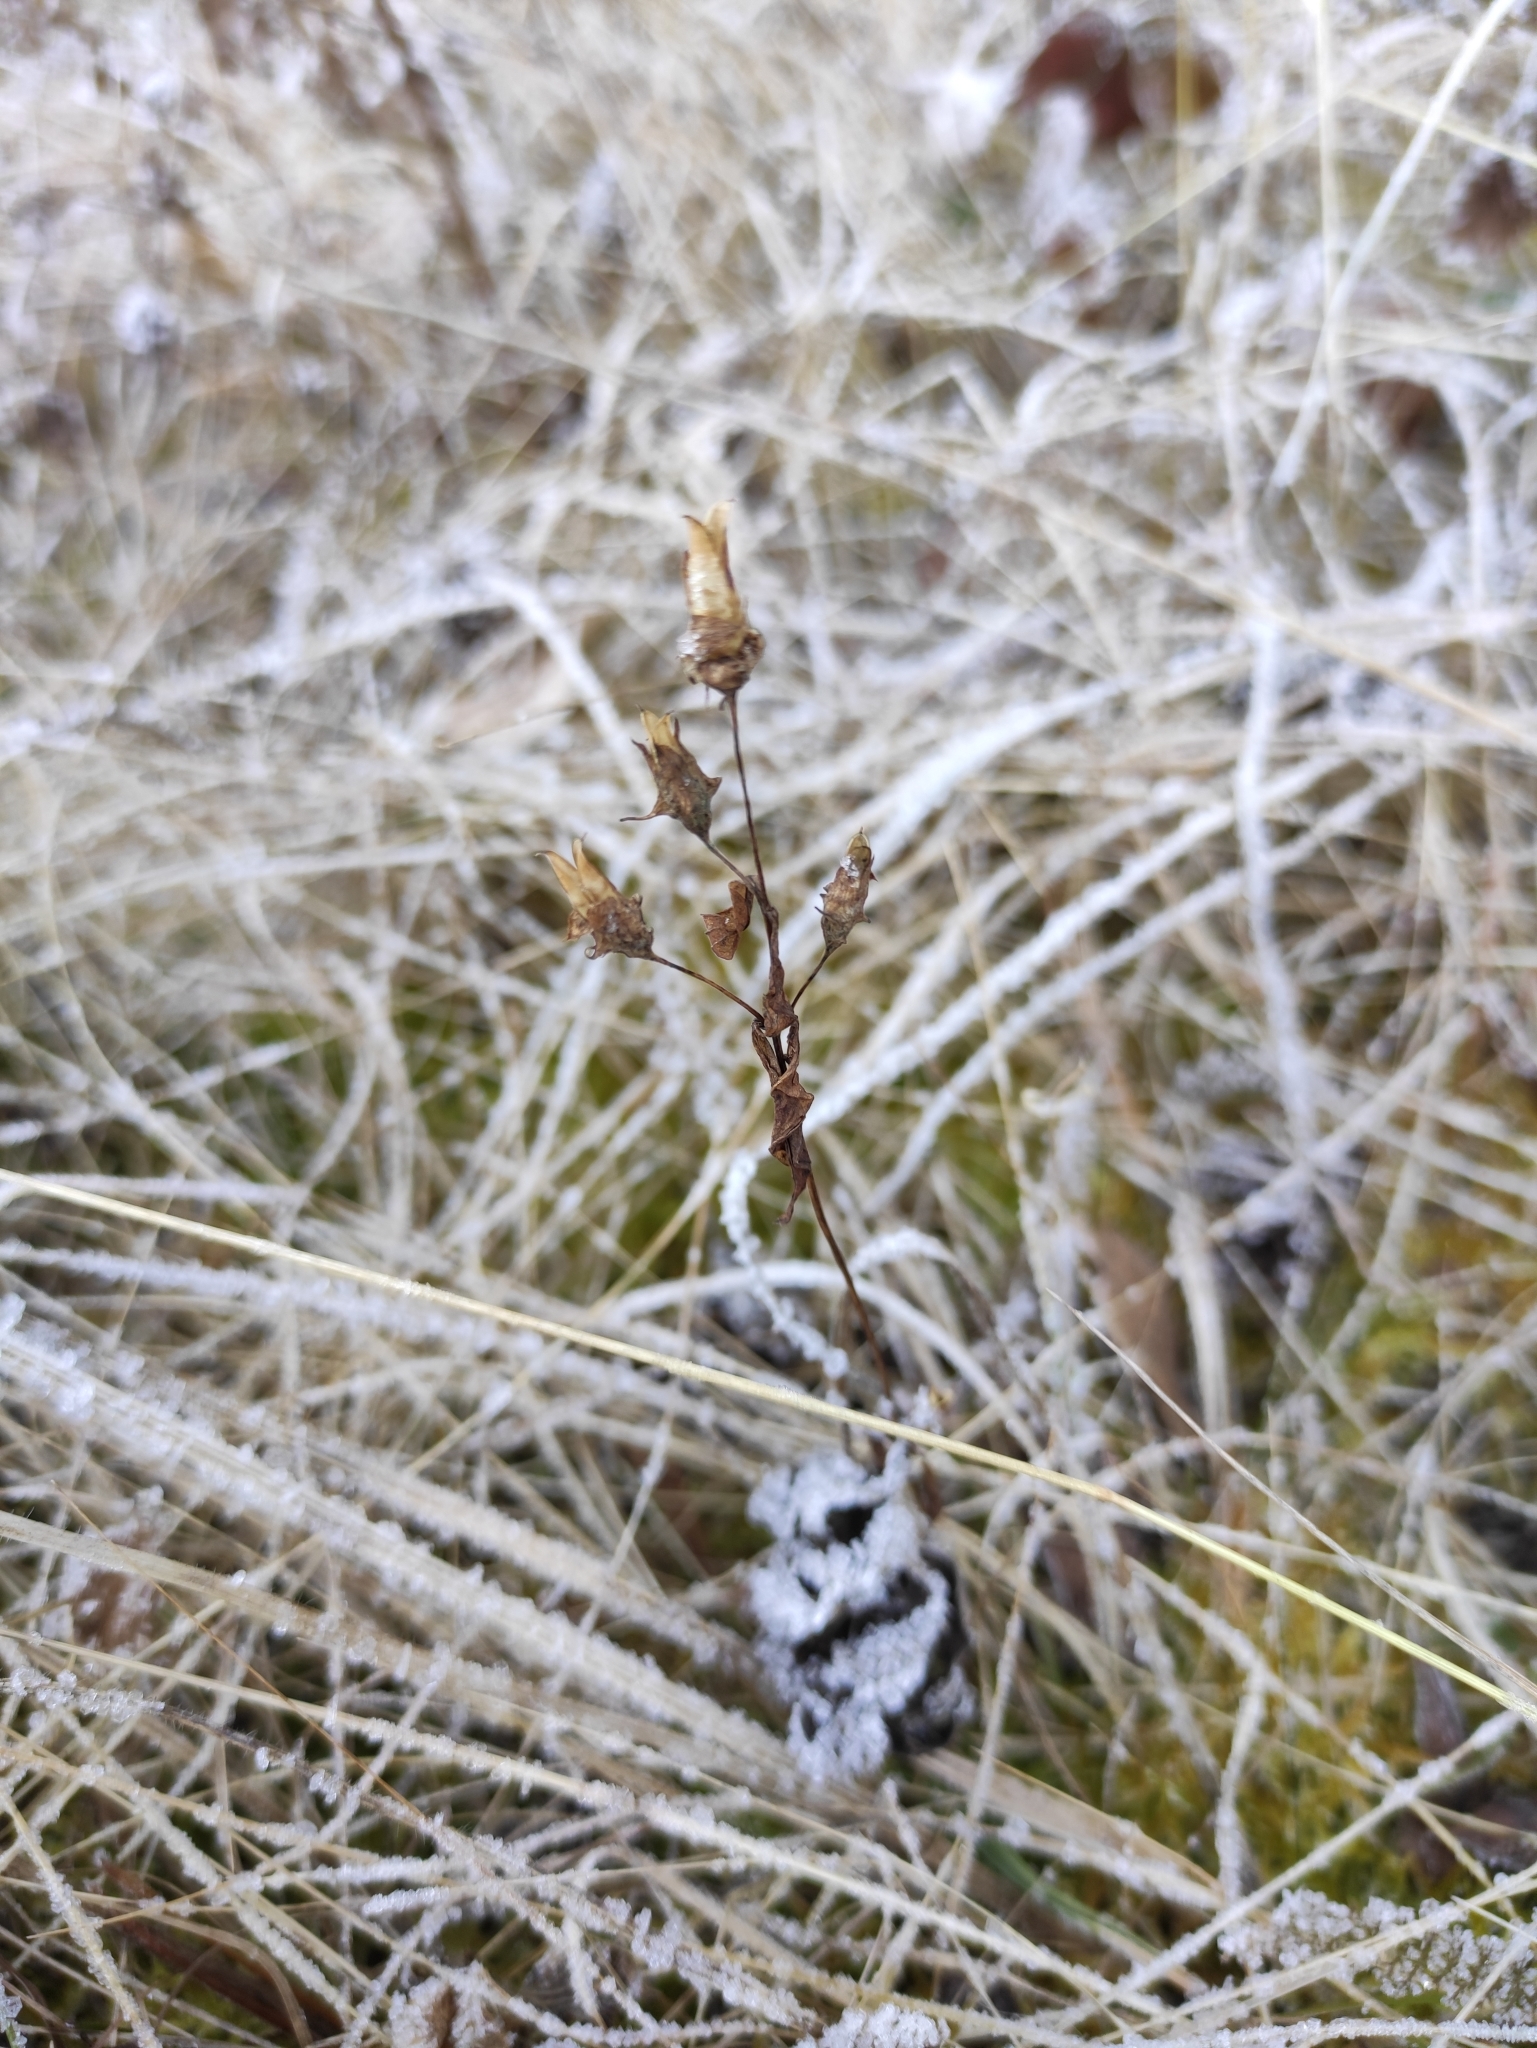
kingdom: Plantae
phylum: Tracheophyta
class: Magnoliopsida
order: Gentianales
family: Gentianaceae
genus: Halenia
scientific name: Halenia corniculata
